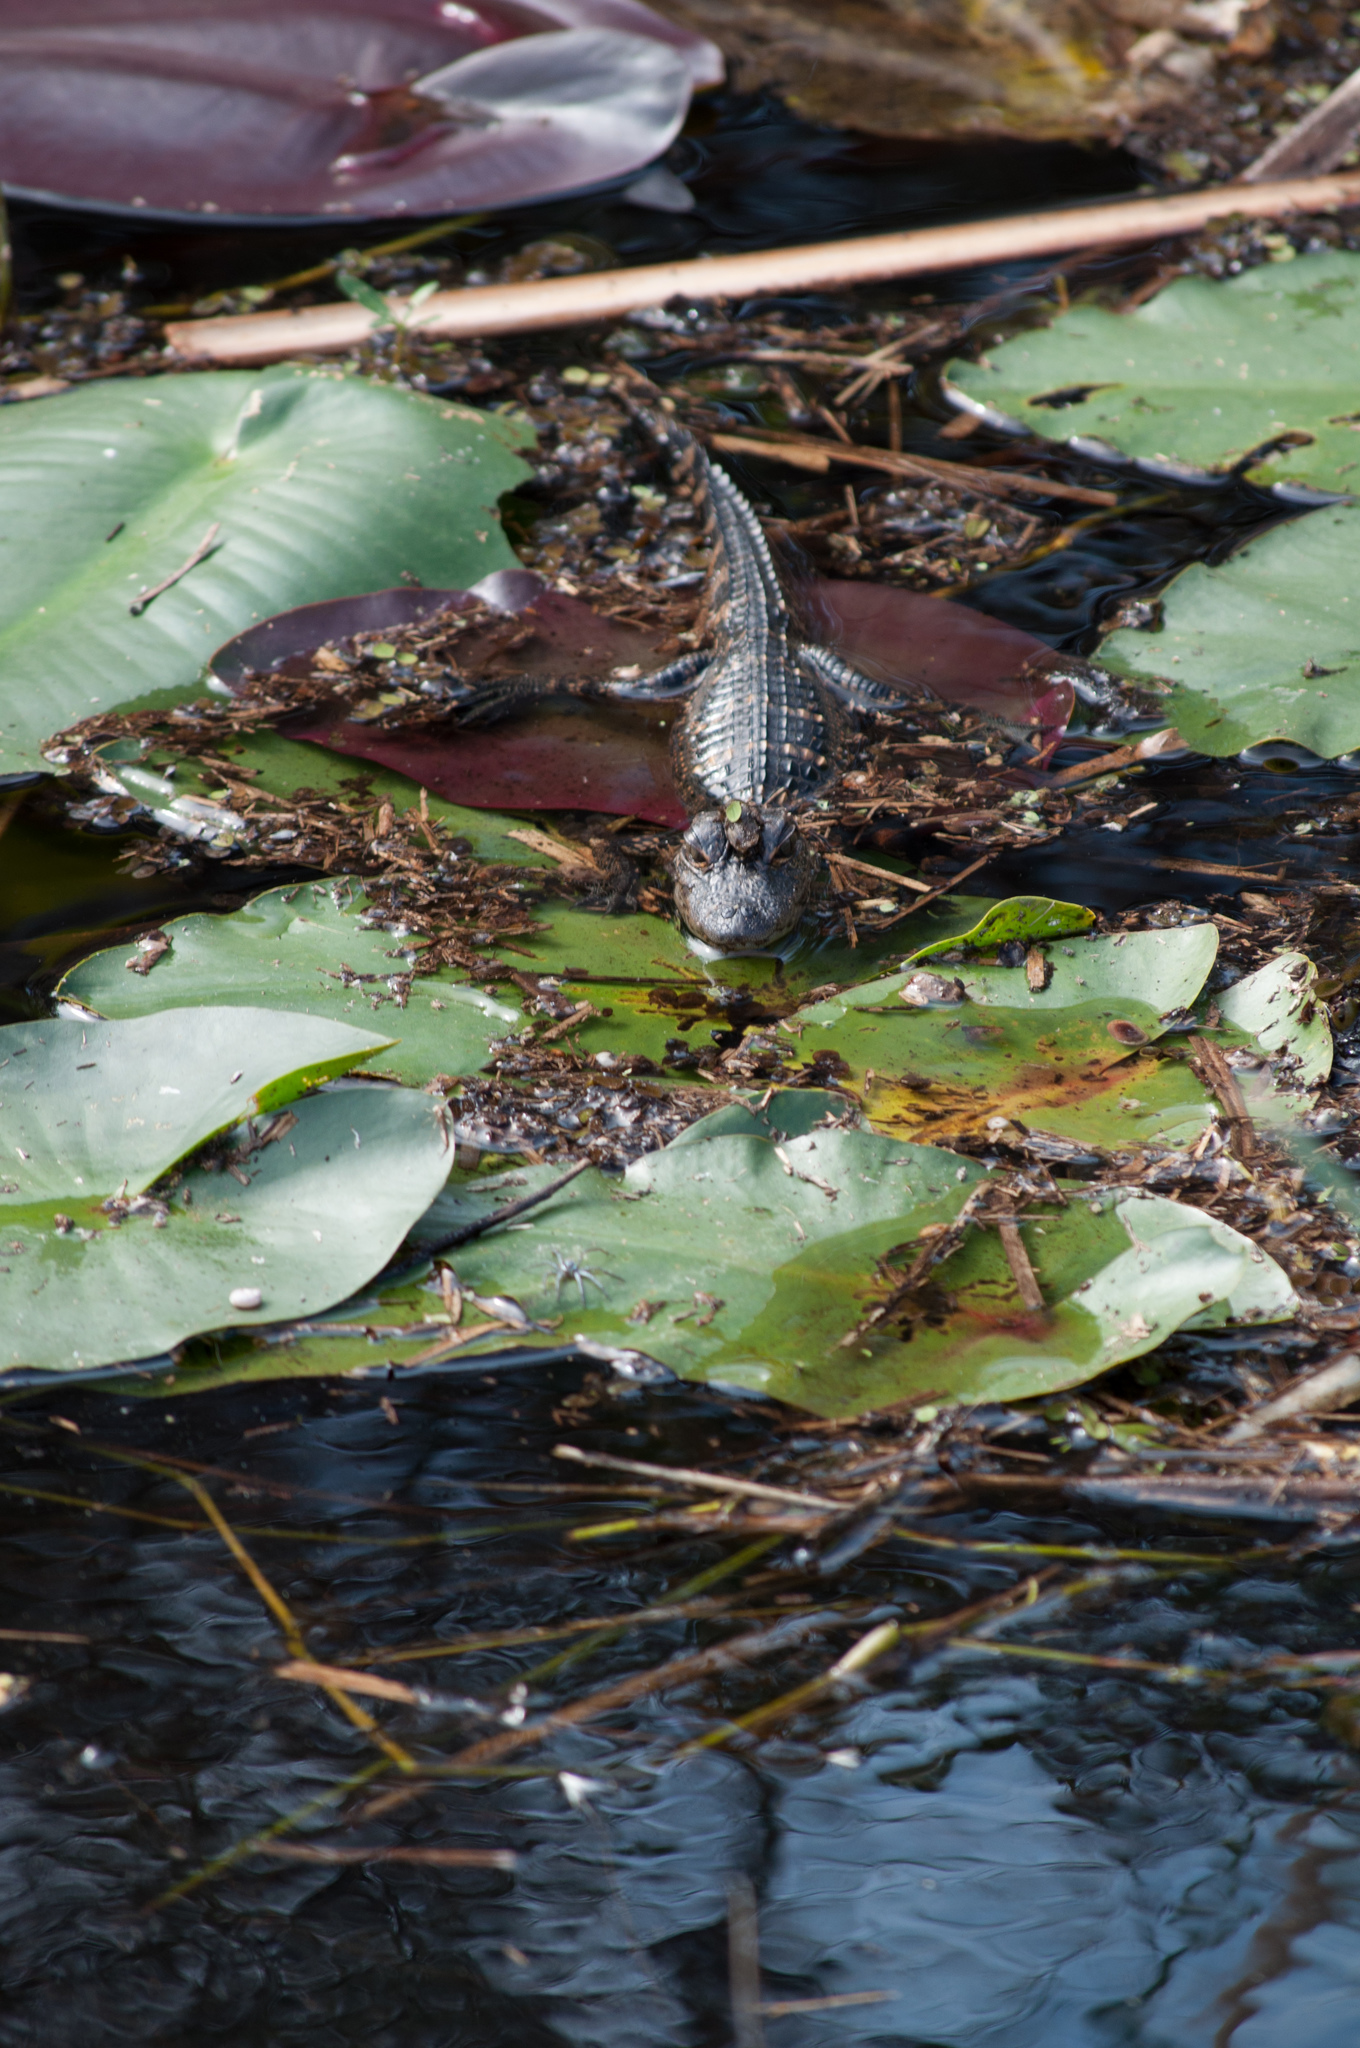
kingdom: Animalia
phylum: Chordata
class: Crocodylia
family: Alligatoridae
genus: Alligator
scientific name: Alligator mississippiensis
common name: American alligator
